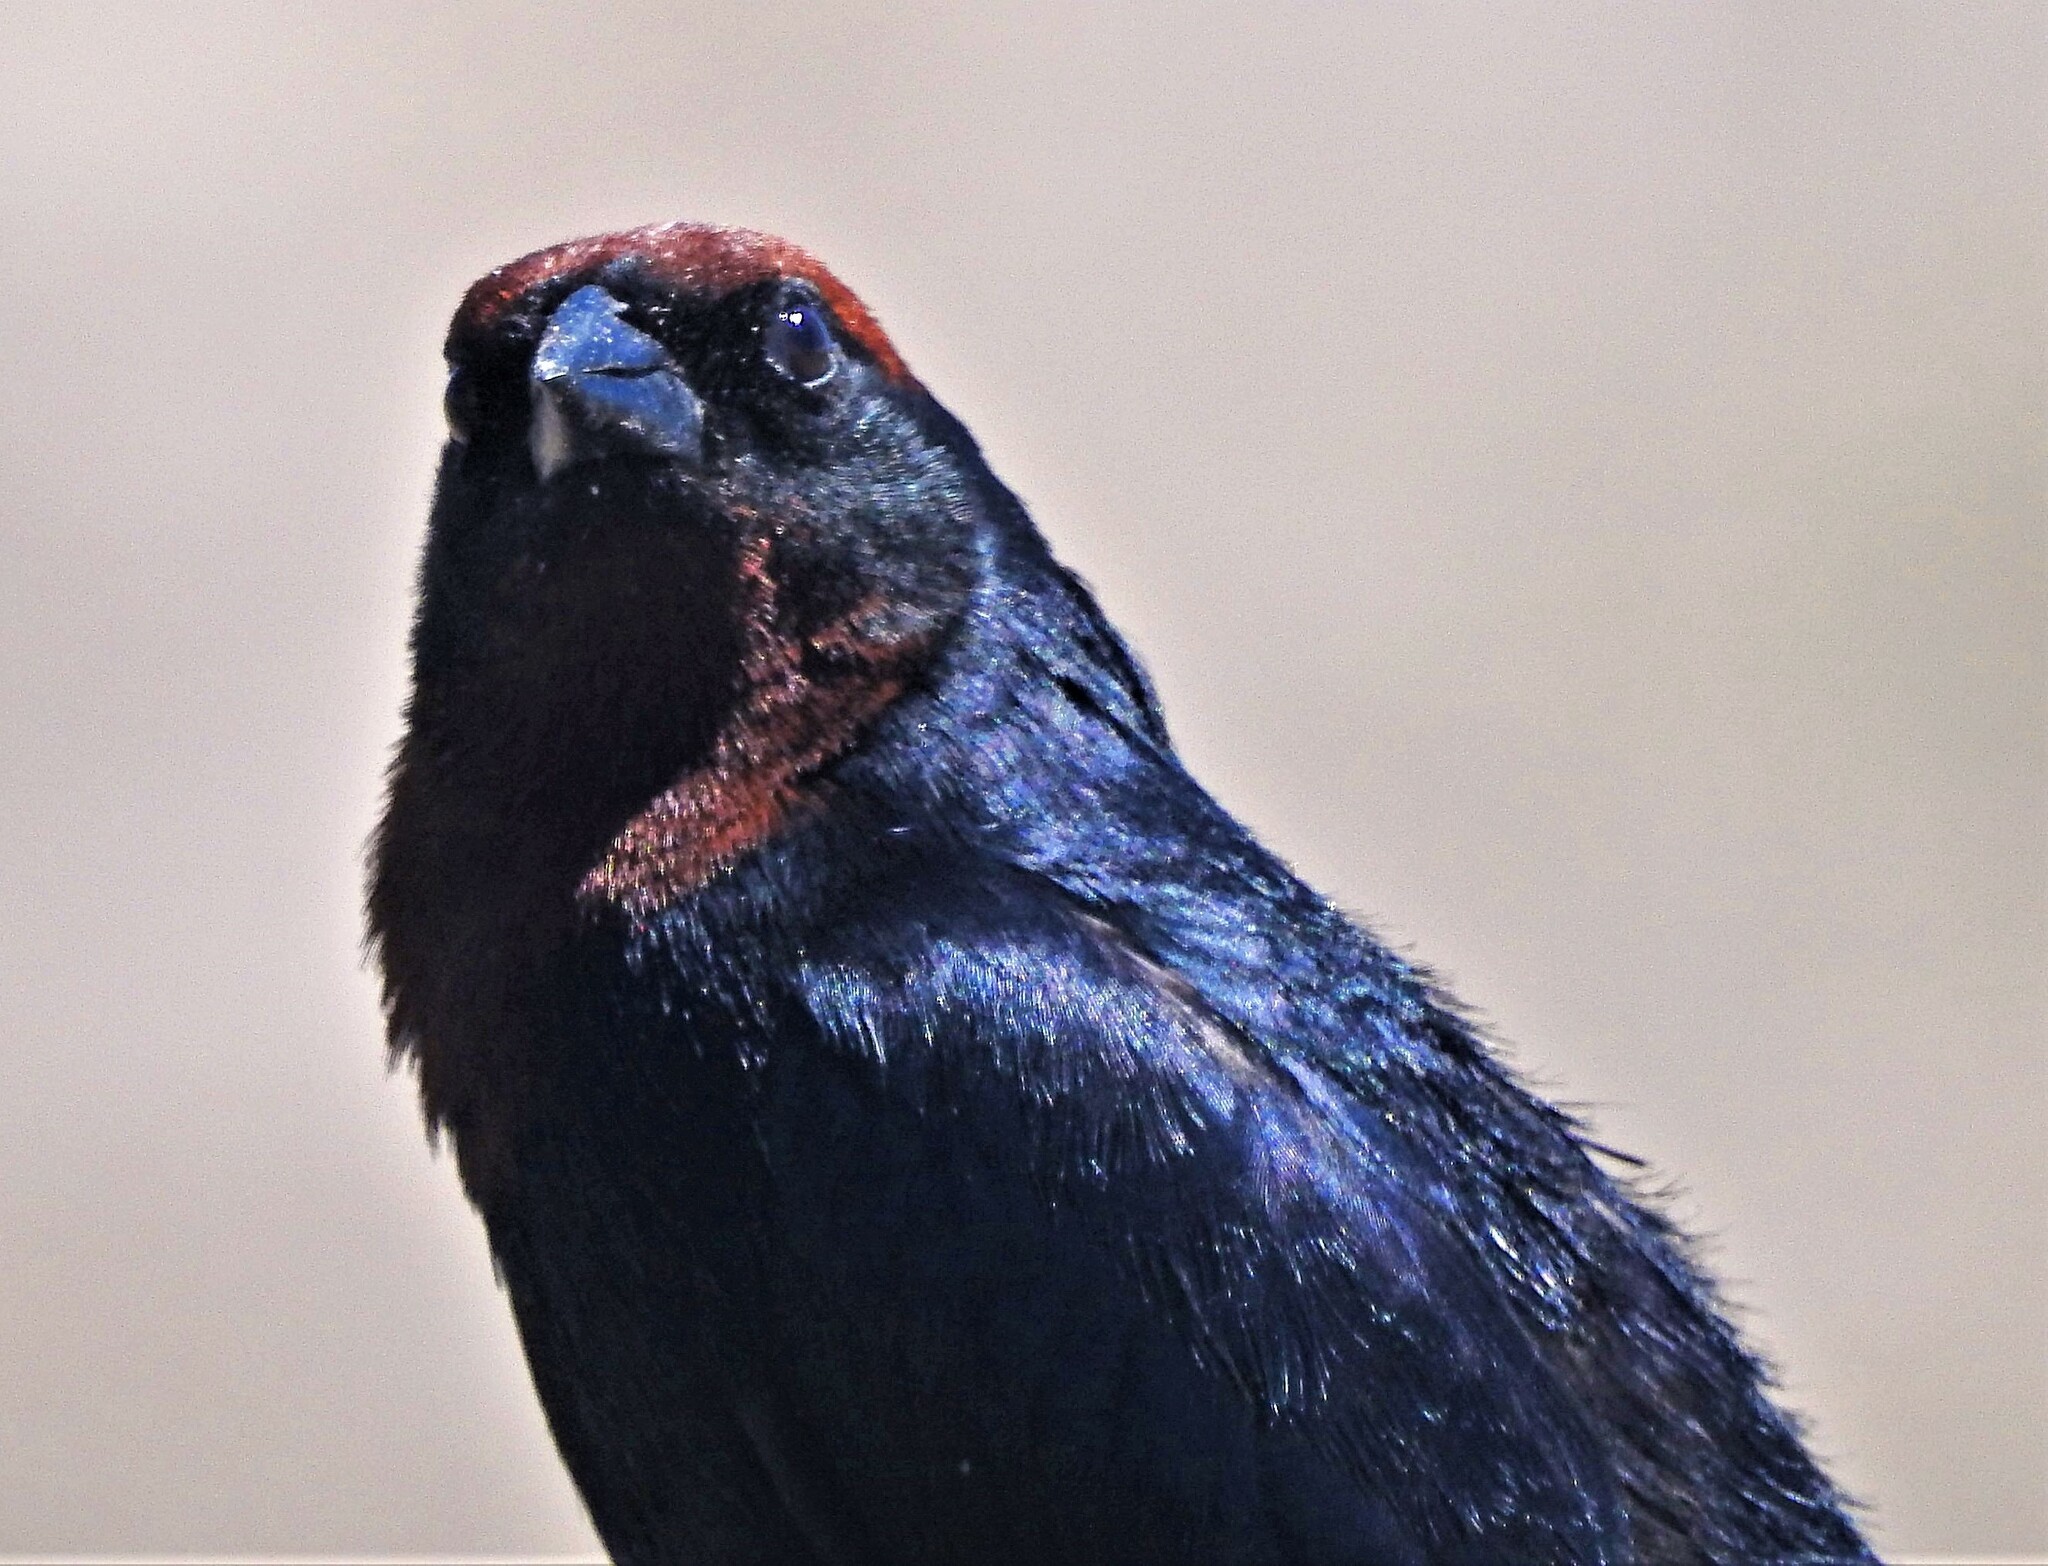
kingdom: Animalia
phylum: Chordata
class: Aves
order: Passeriformes
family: Icteridae
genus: Chrysomus
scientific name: Chrysomus ruficapillus
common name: Chestnut-capped blackbird
